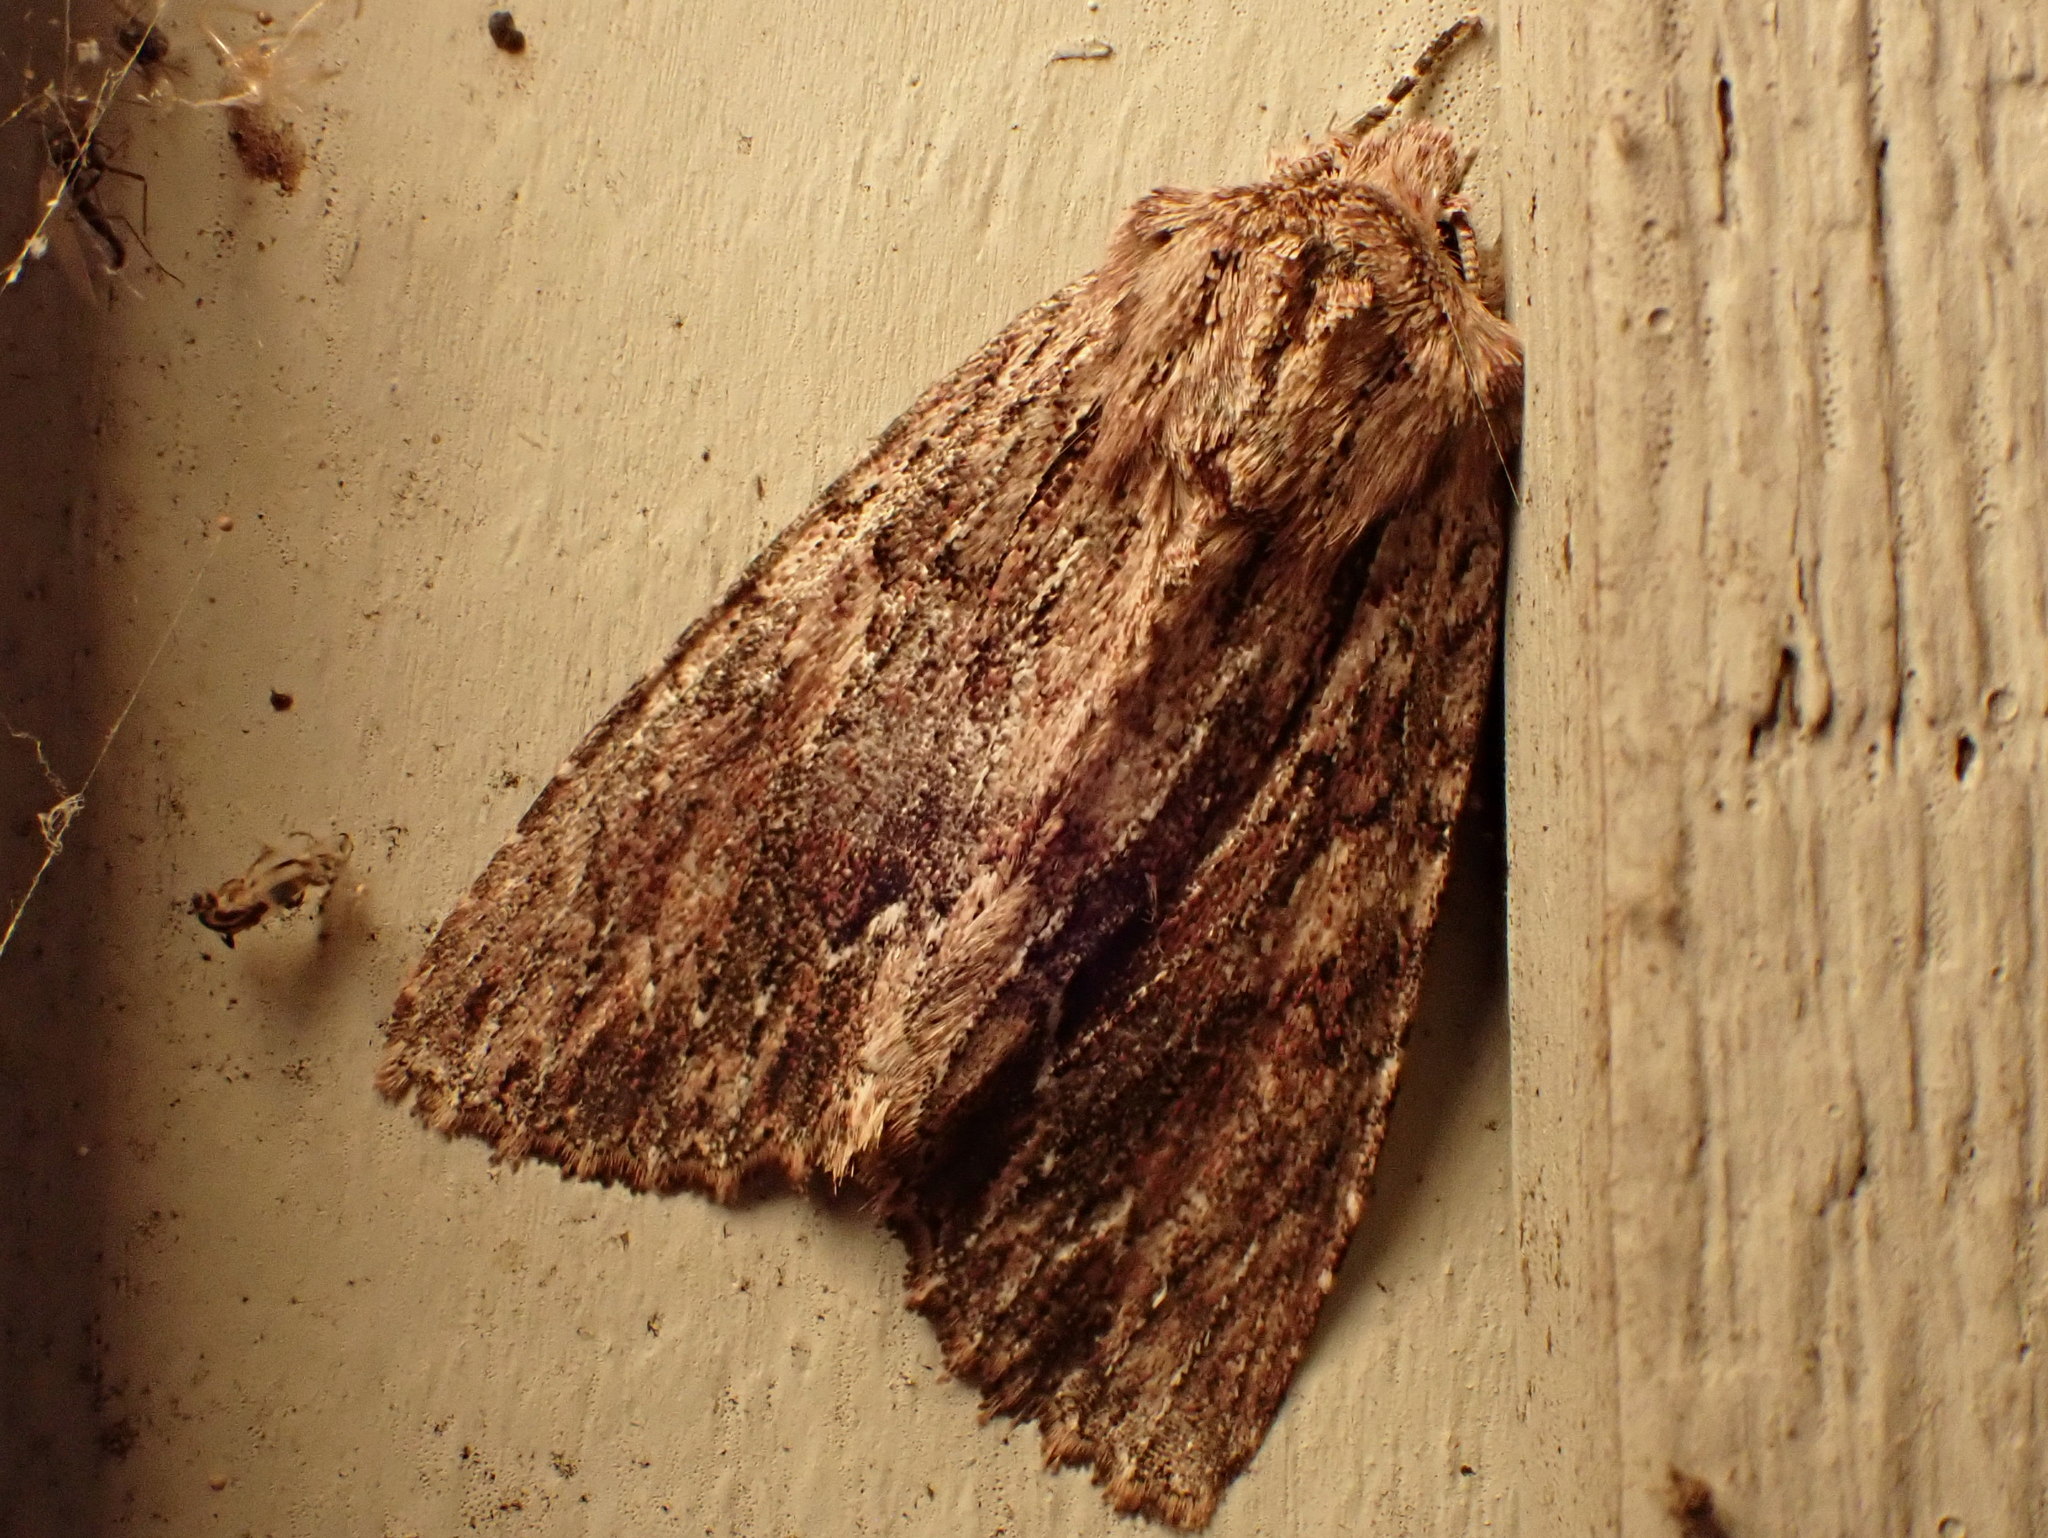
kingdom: Animalia
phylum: Arthropoda
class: Insecta
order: Lepidoptera
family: Noctuidae
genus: Achatia
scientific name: Achatia confusa
